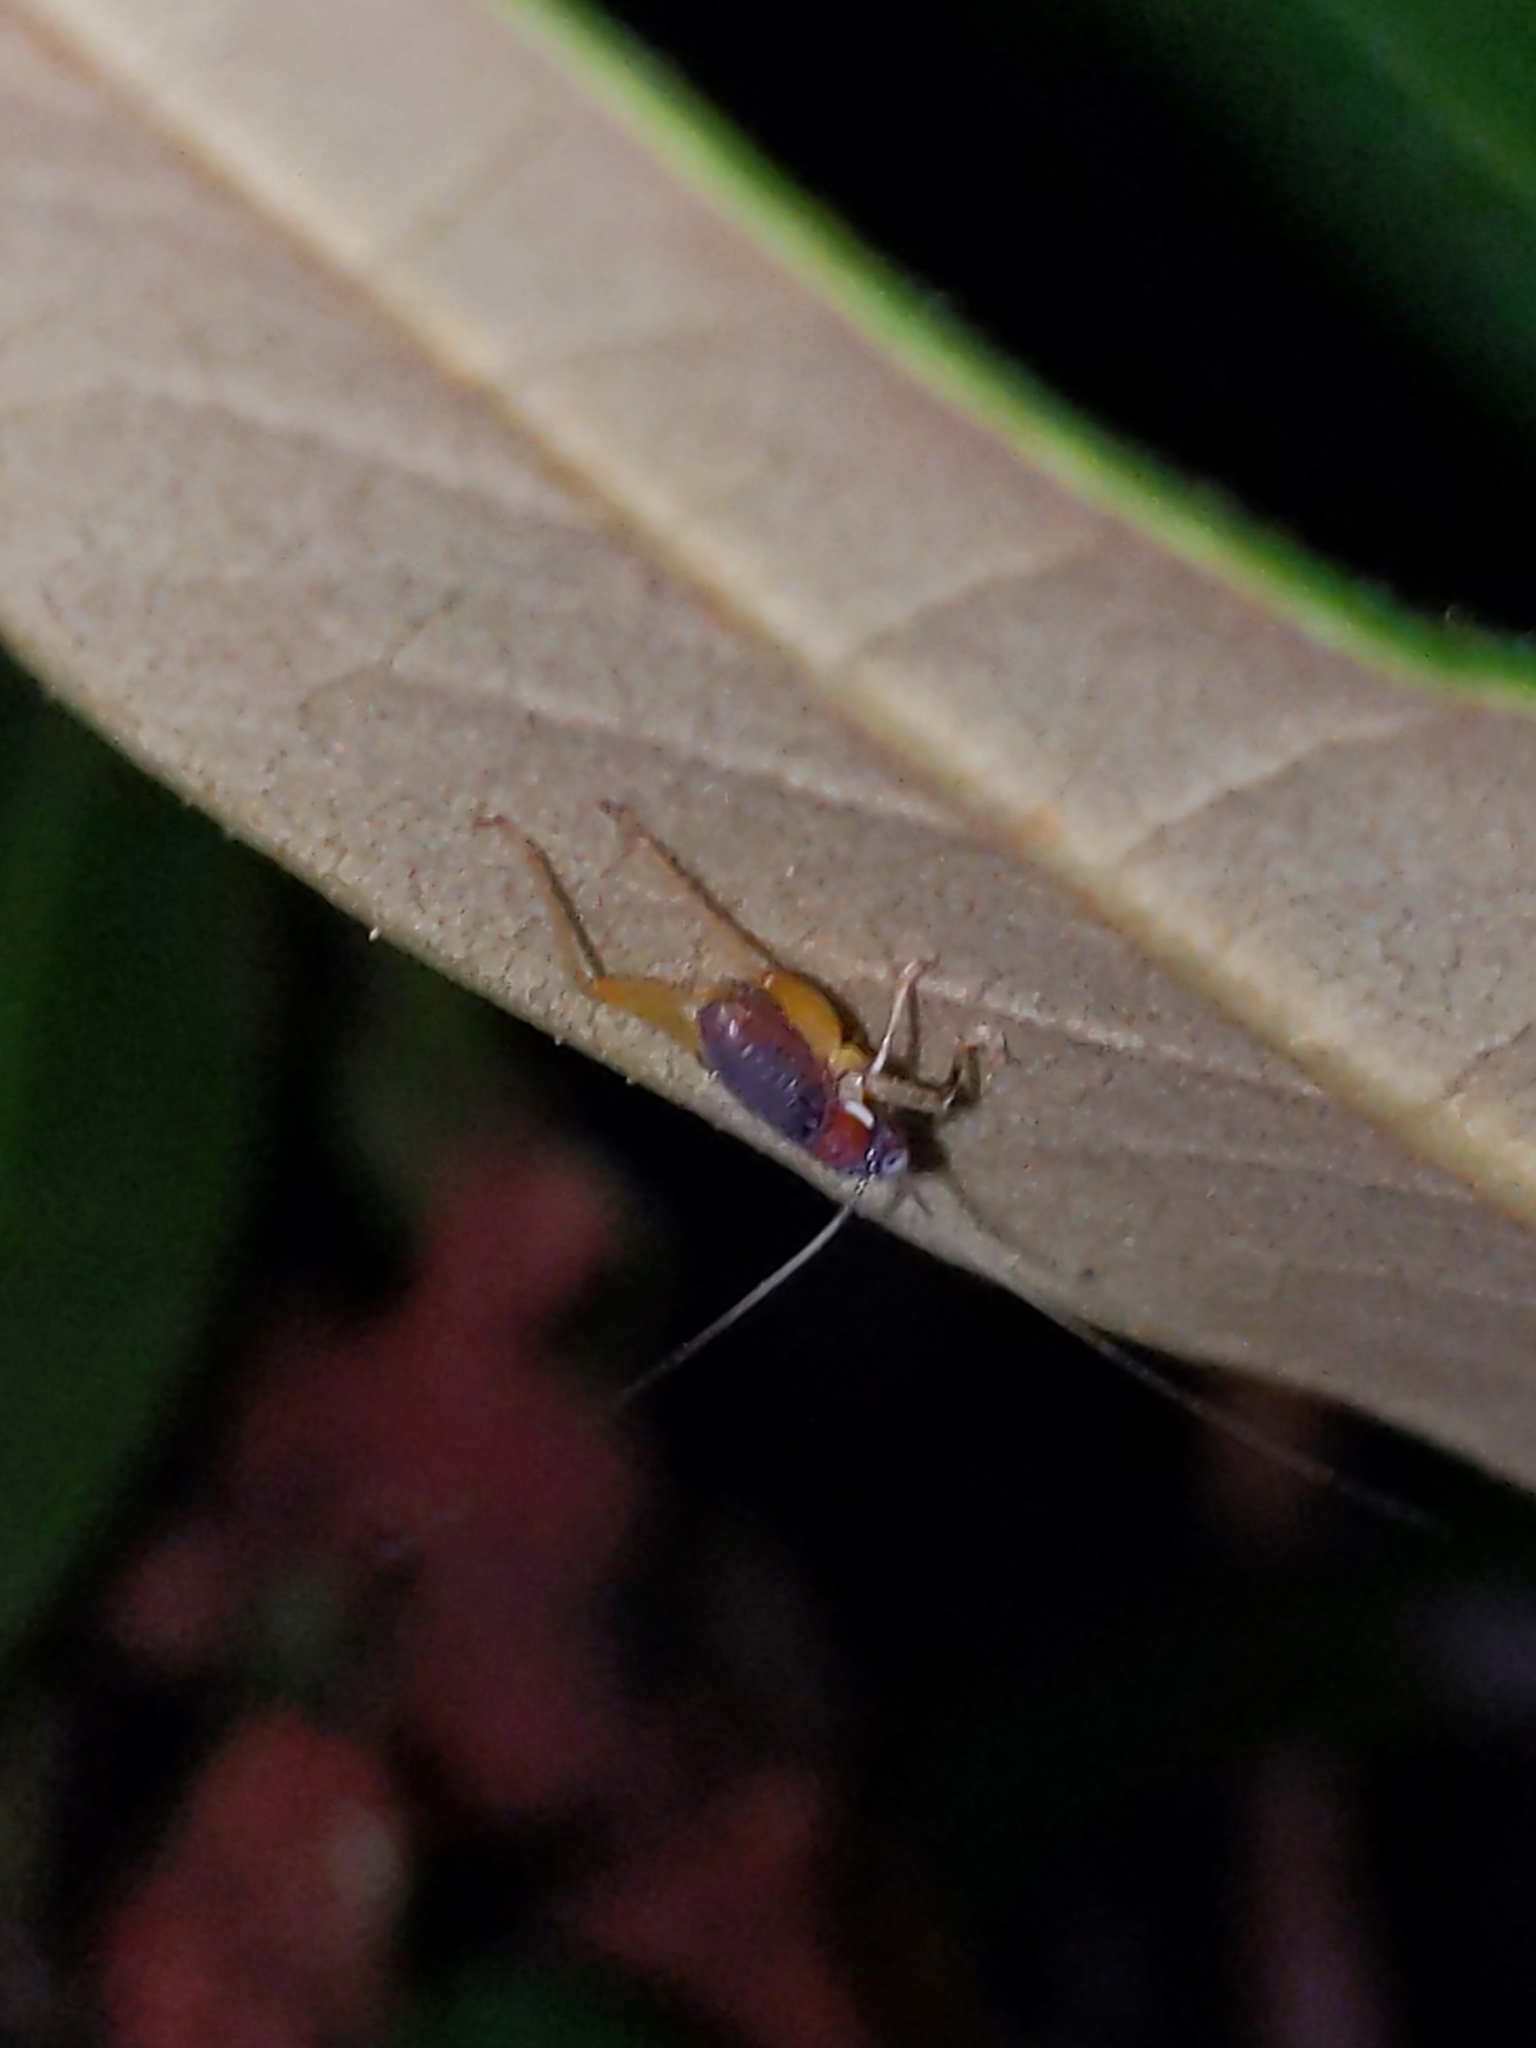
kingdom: Animalia
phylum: Arthropoda
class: Insecta
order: Orthoptera
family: Trigonidiidae
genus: Phyllopalpus
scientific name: Phyllopalpus pulchellus
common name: Handsome trig
